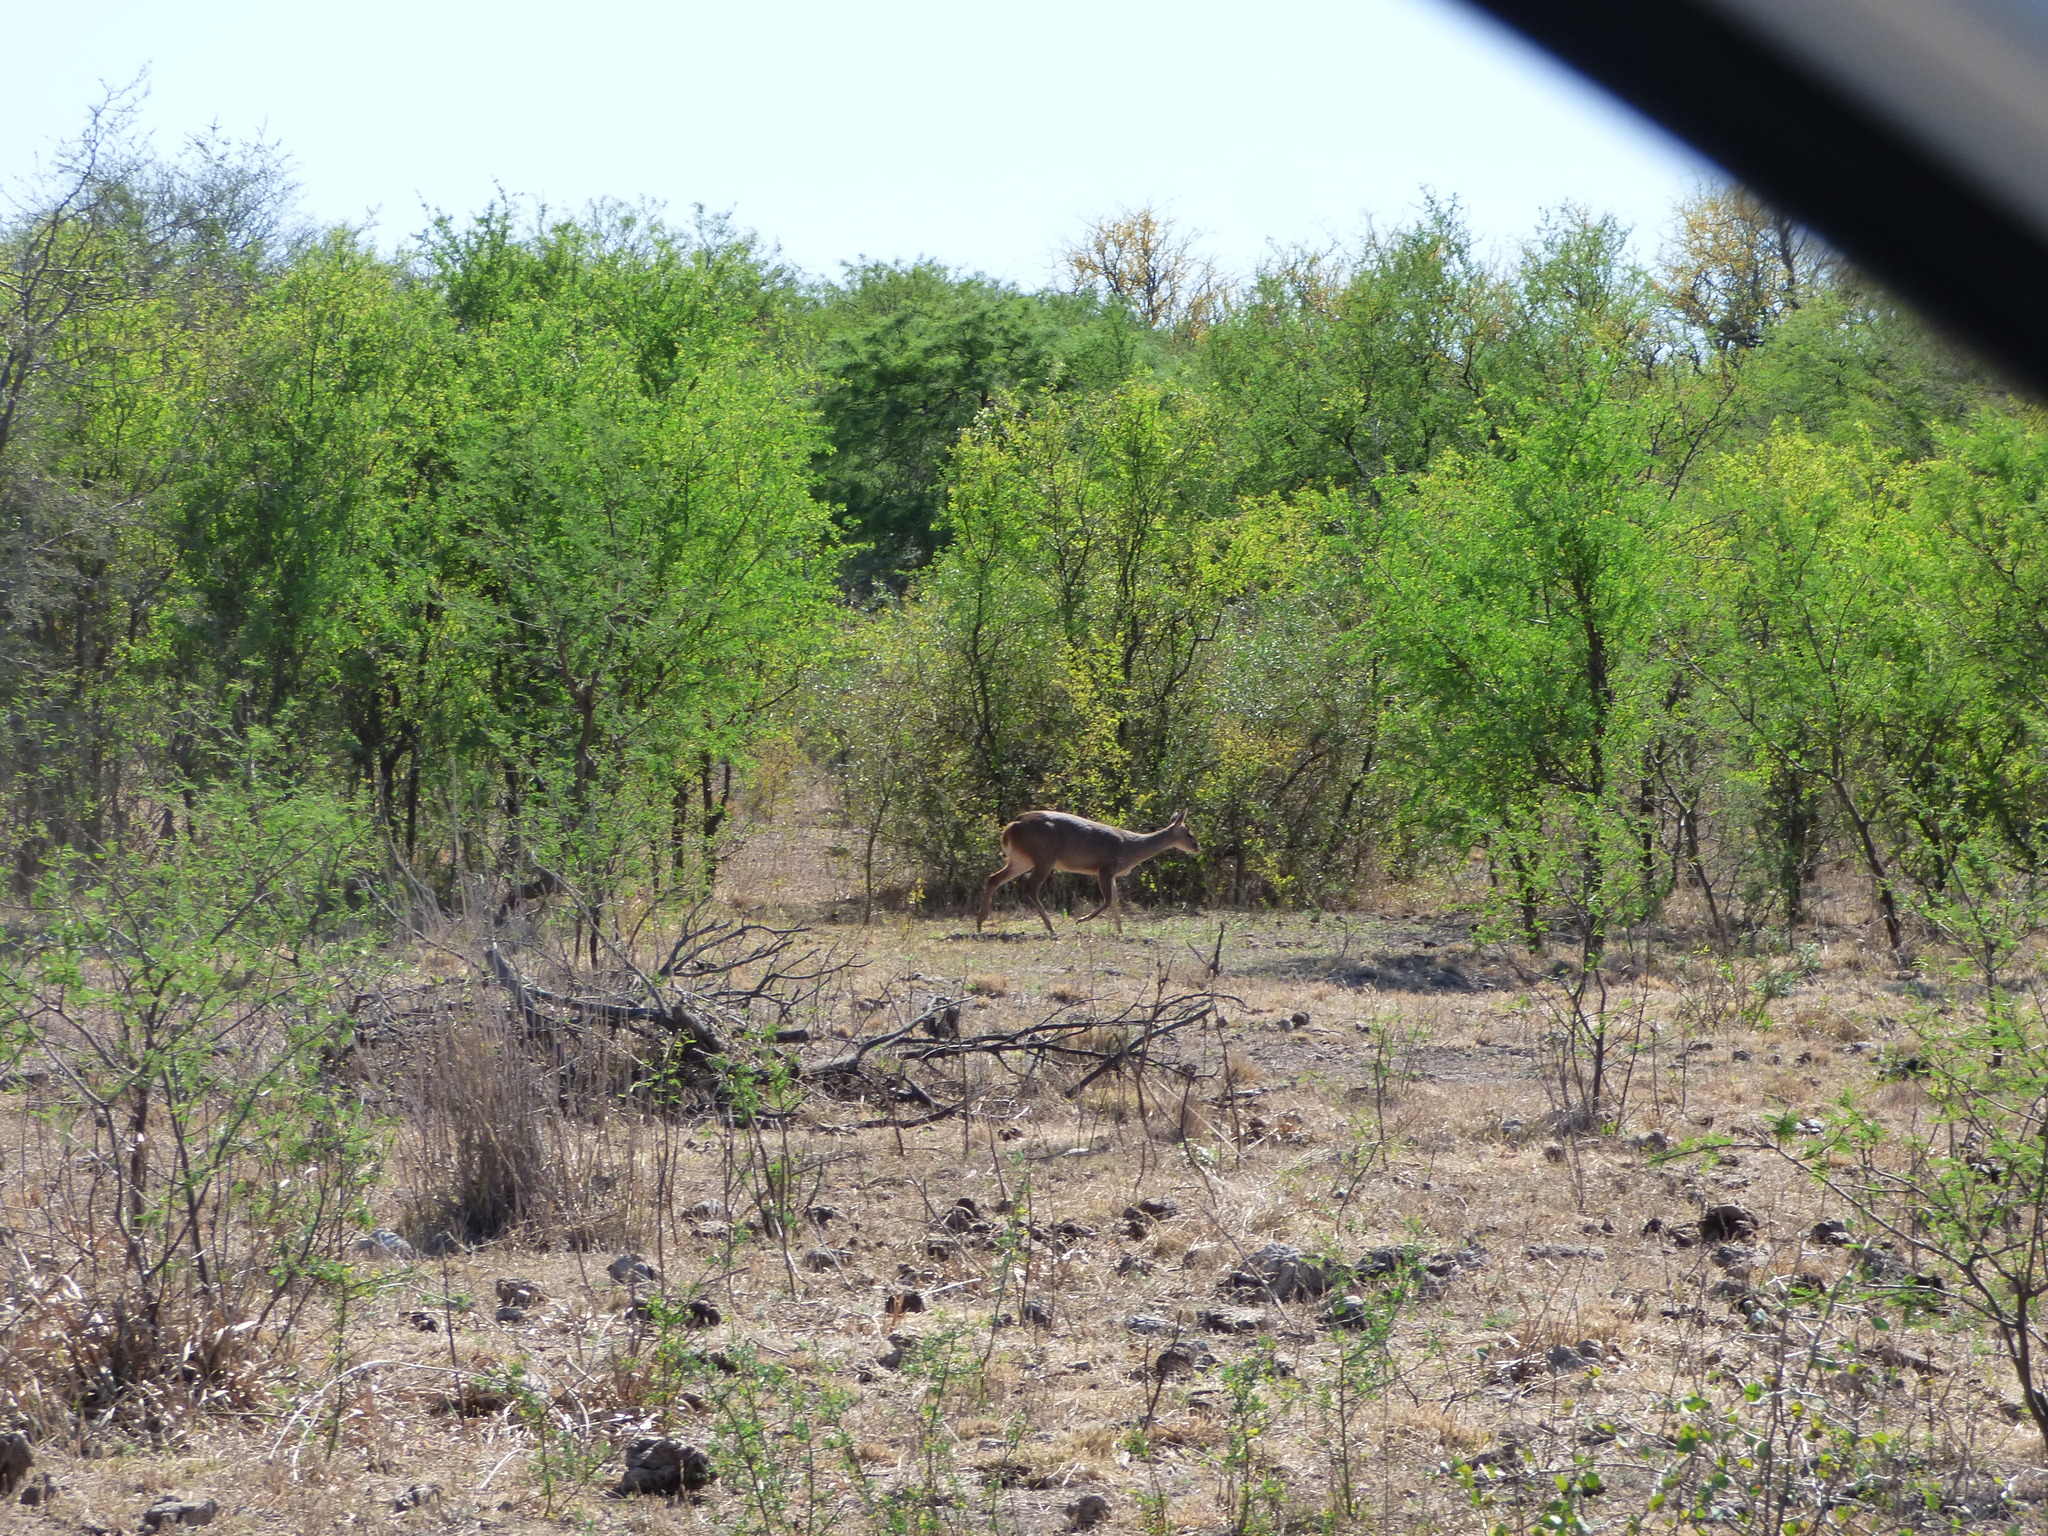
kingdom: Animalia
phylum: Chordata
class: Mammalia
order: Artiodactyla
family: Cervidae
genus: Mazama
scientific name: Mazama gouazoubira
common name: Gray brocket
